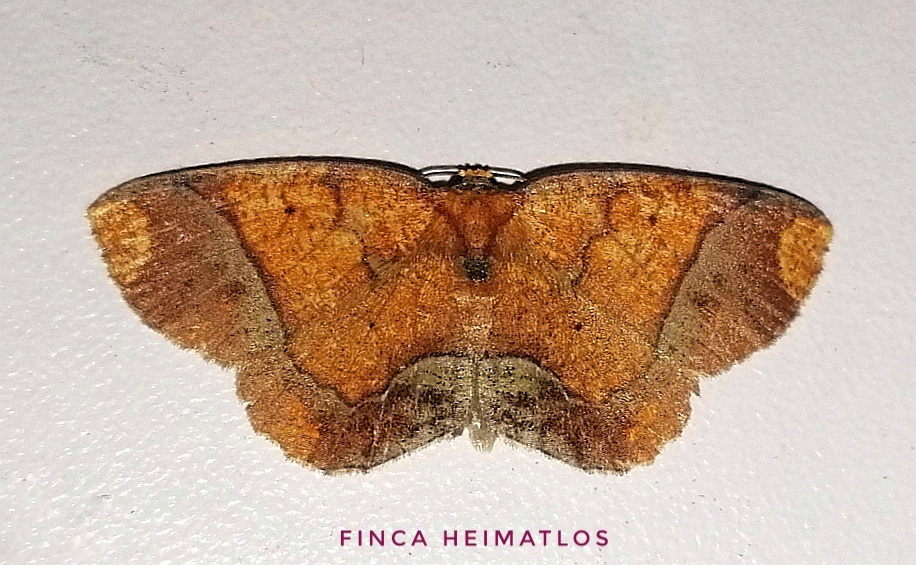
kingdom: Animalia
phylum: Arthropoda
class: Insecta
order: Lepidoptera
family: Geometridae
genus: Melinoides
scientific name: Melinoides detersaria
